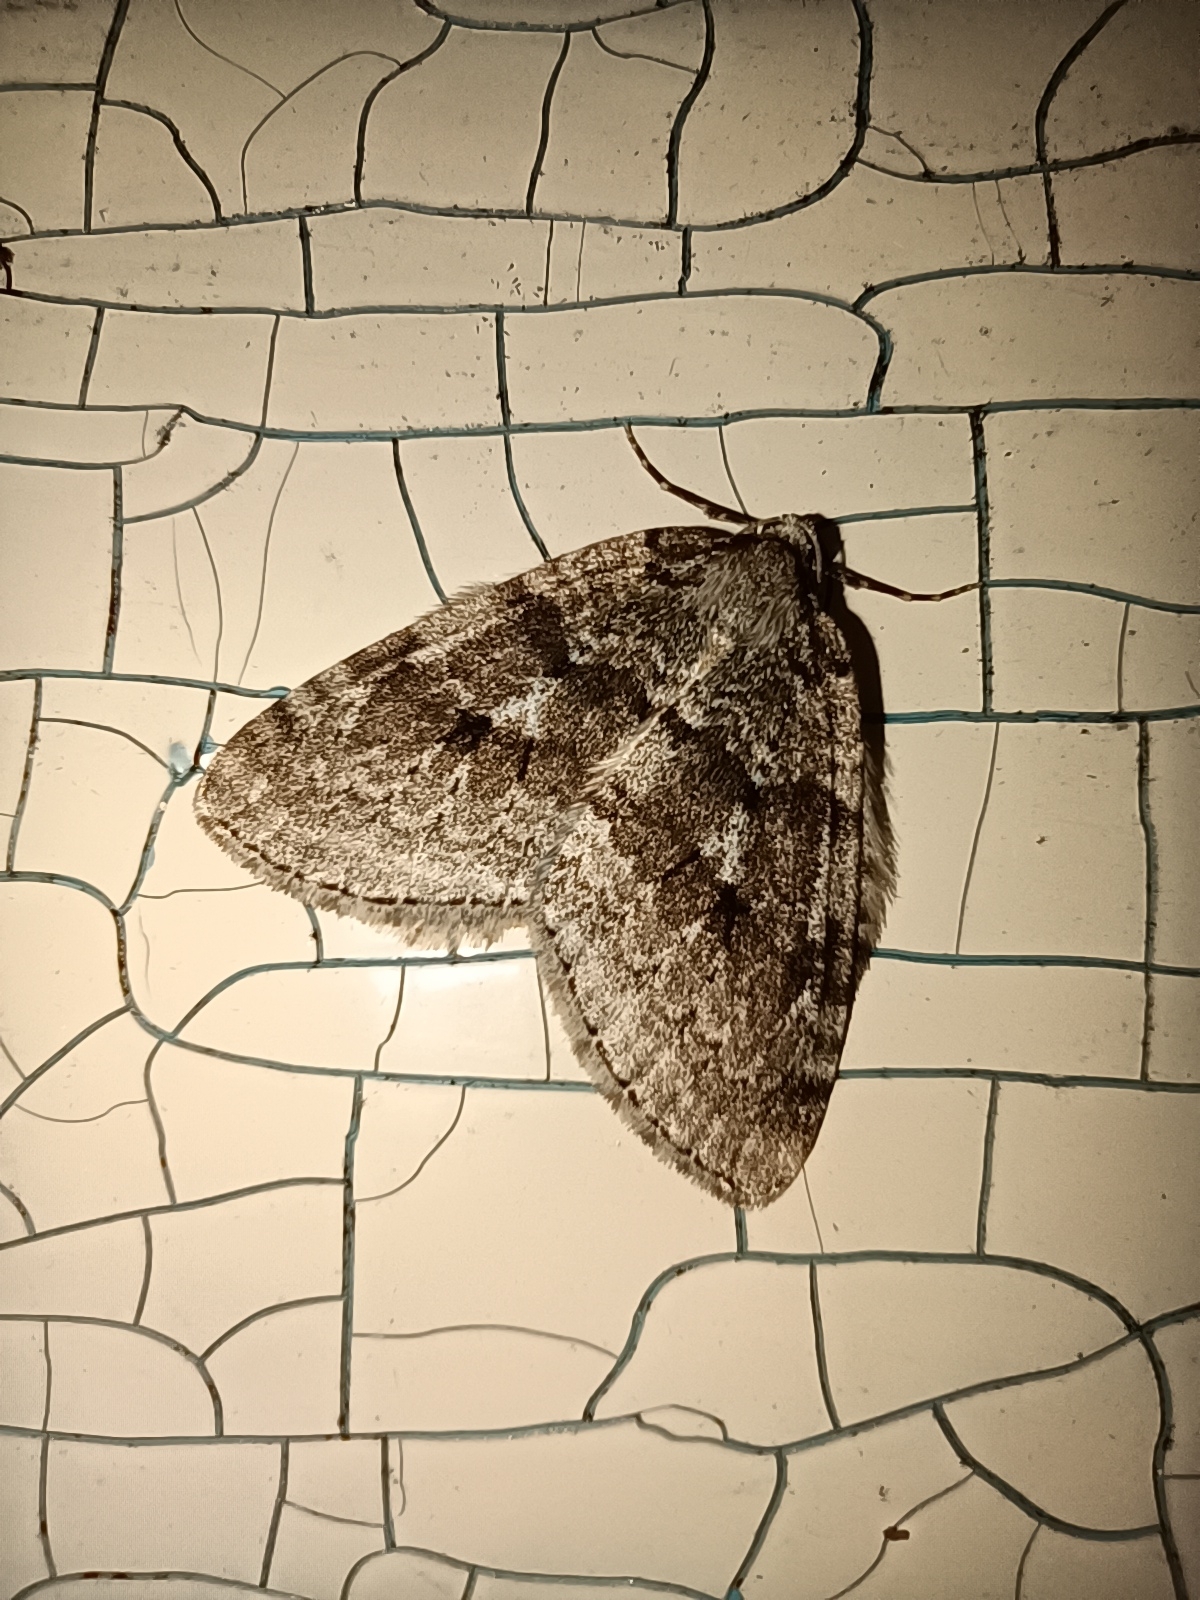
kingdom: Animalia
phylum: Arthropoda
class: Insecta
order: Lepidoptera
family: Geometridae
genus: Epirrita
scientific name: Epirrita autumnata
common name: Autumnal moth
